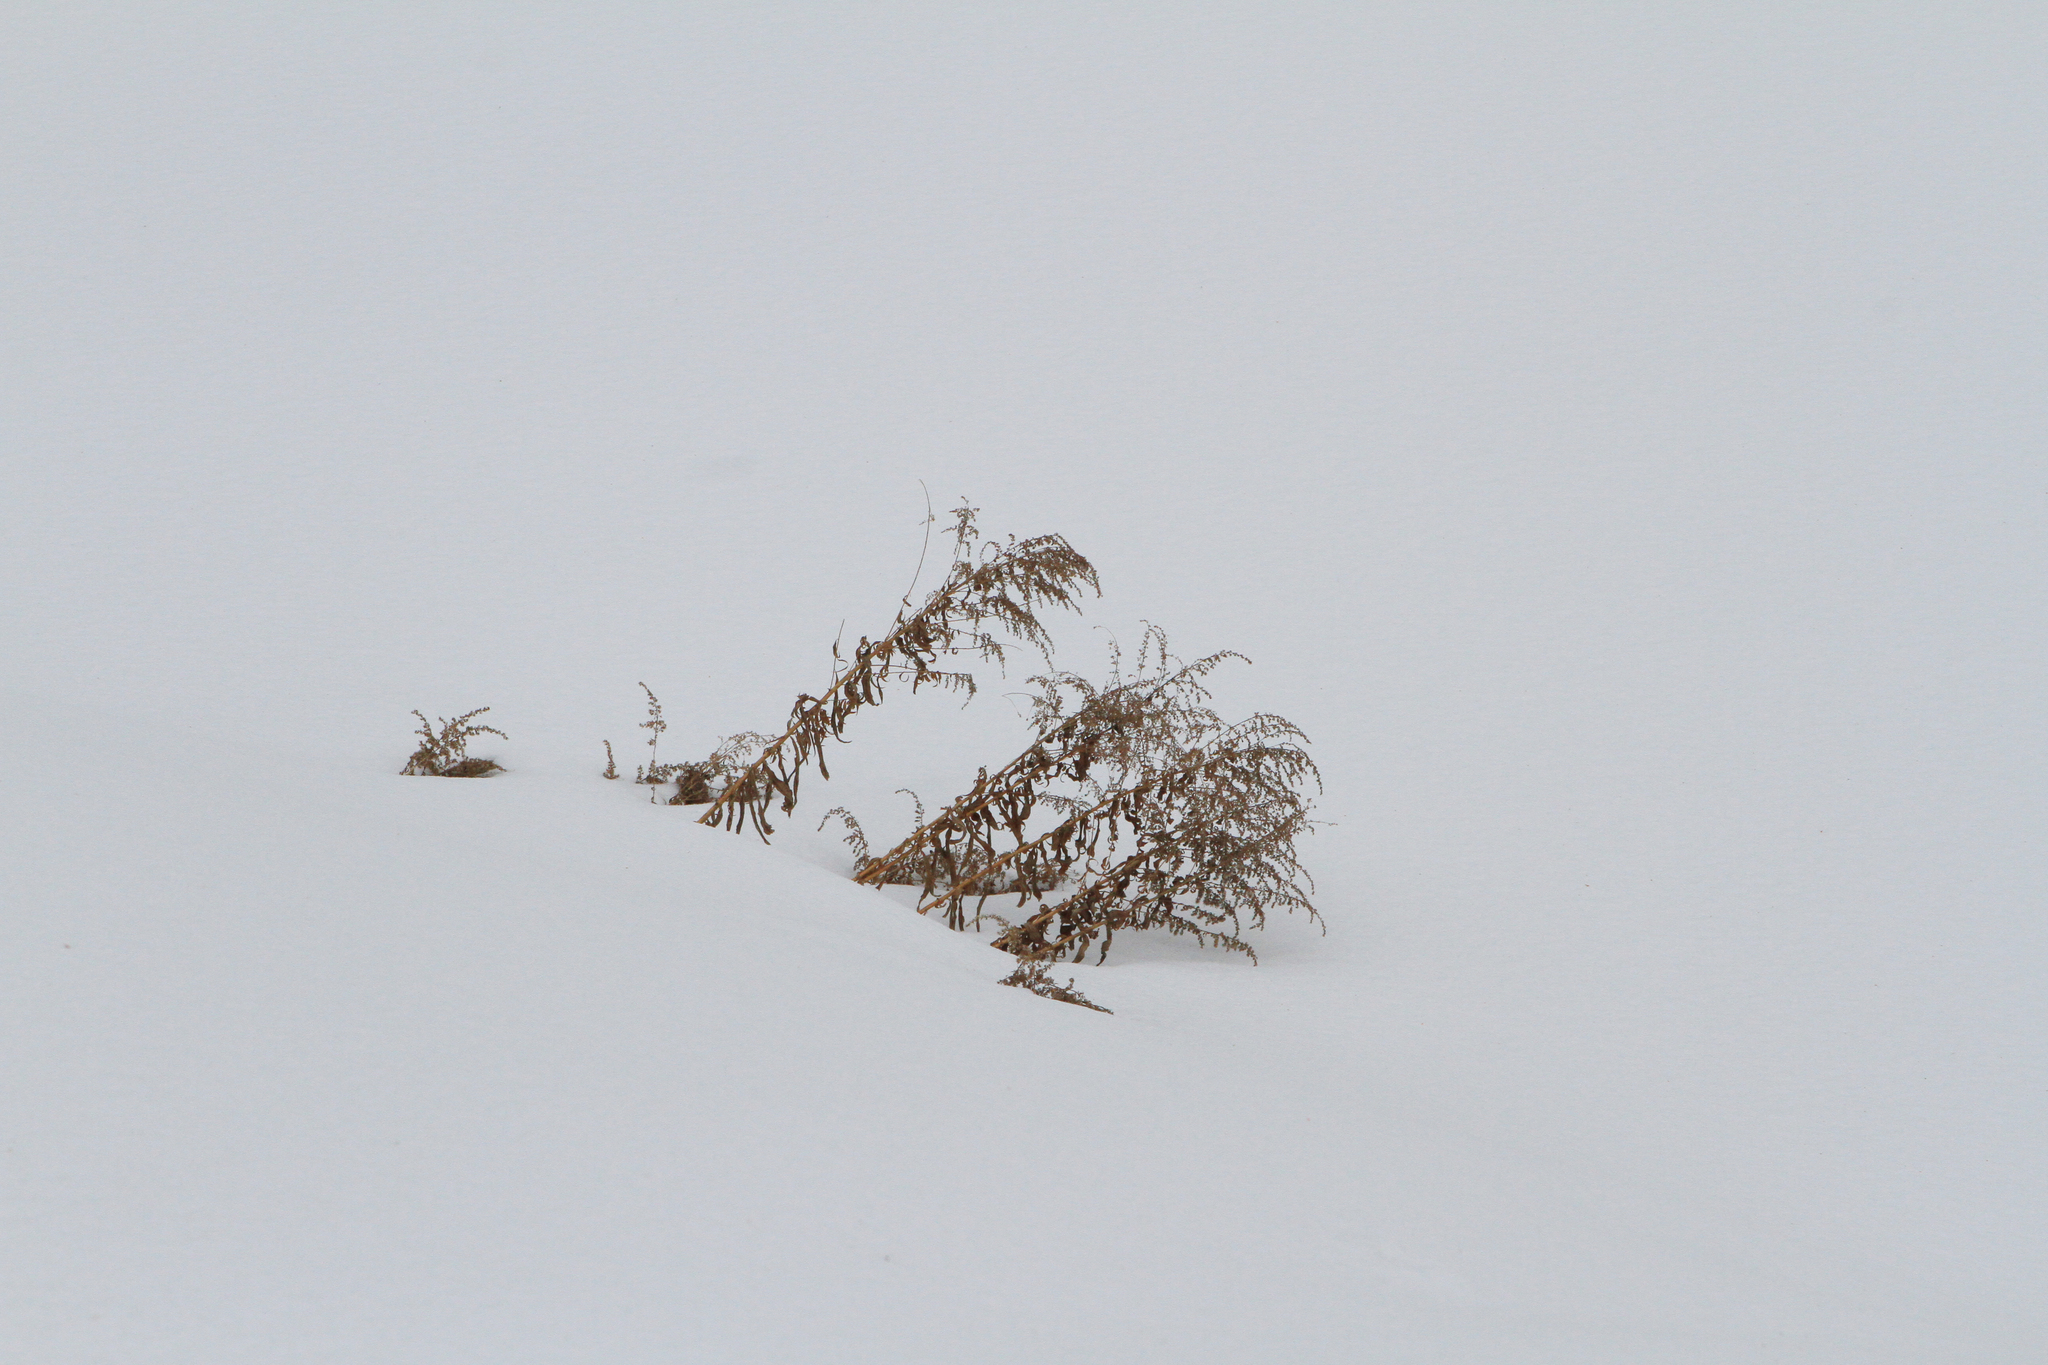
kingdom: Plantae
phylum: Tracheophyta
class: Magnoliopsida
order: Asterales
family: Asteraceae
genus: Solidago
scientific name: Solidago canadensis
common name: Canada goldenrod
